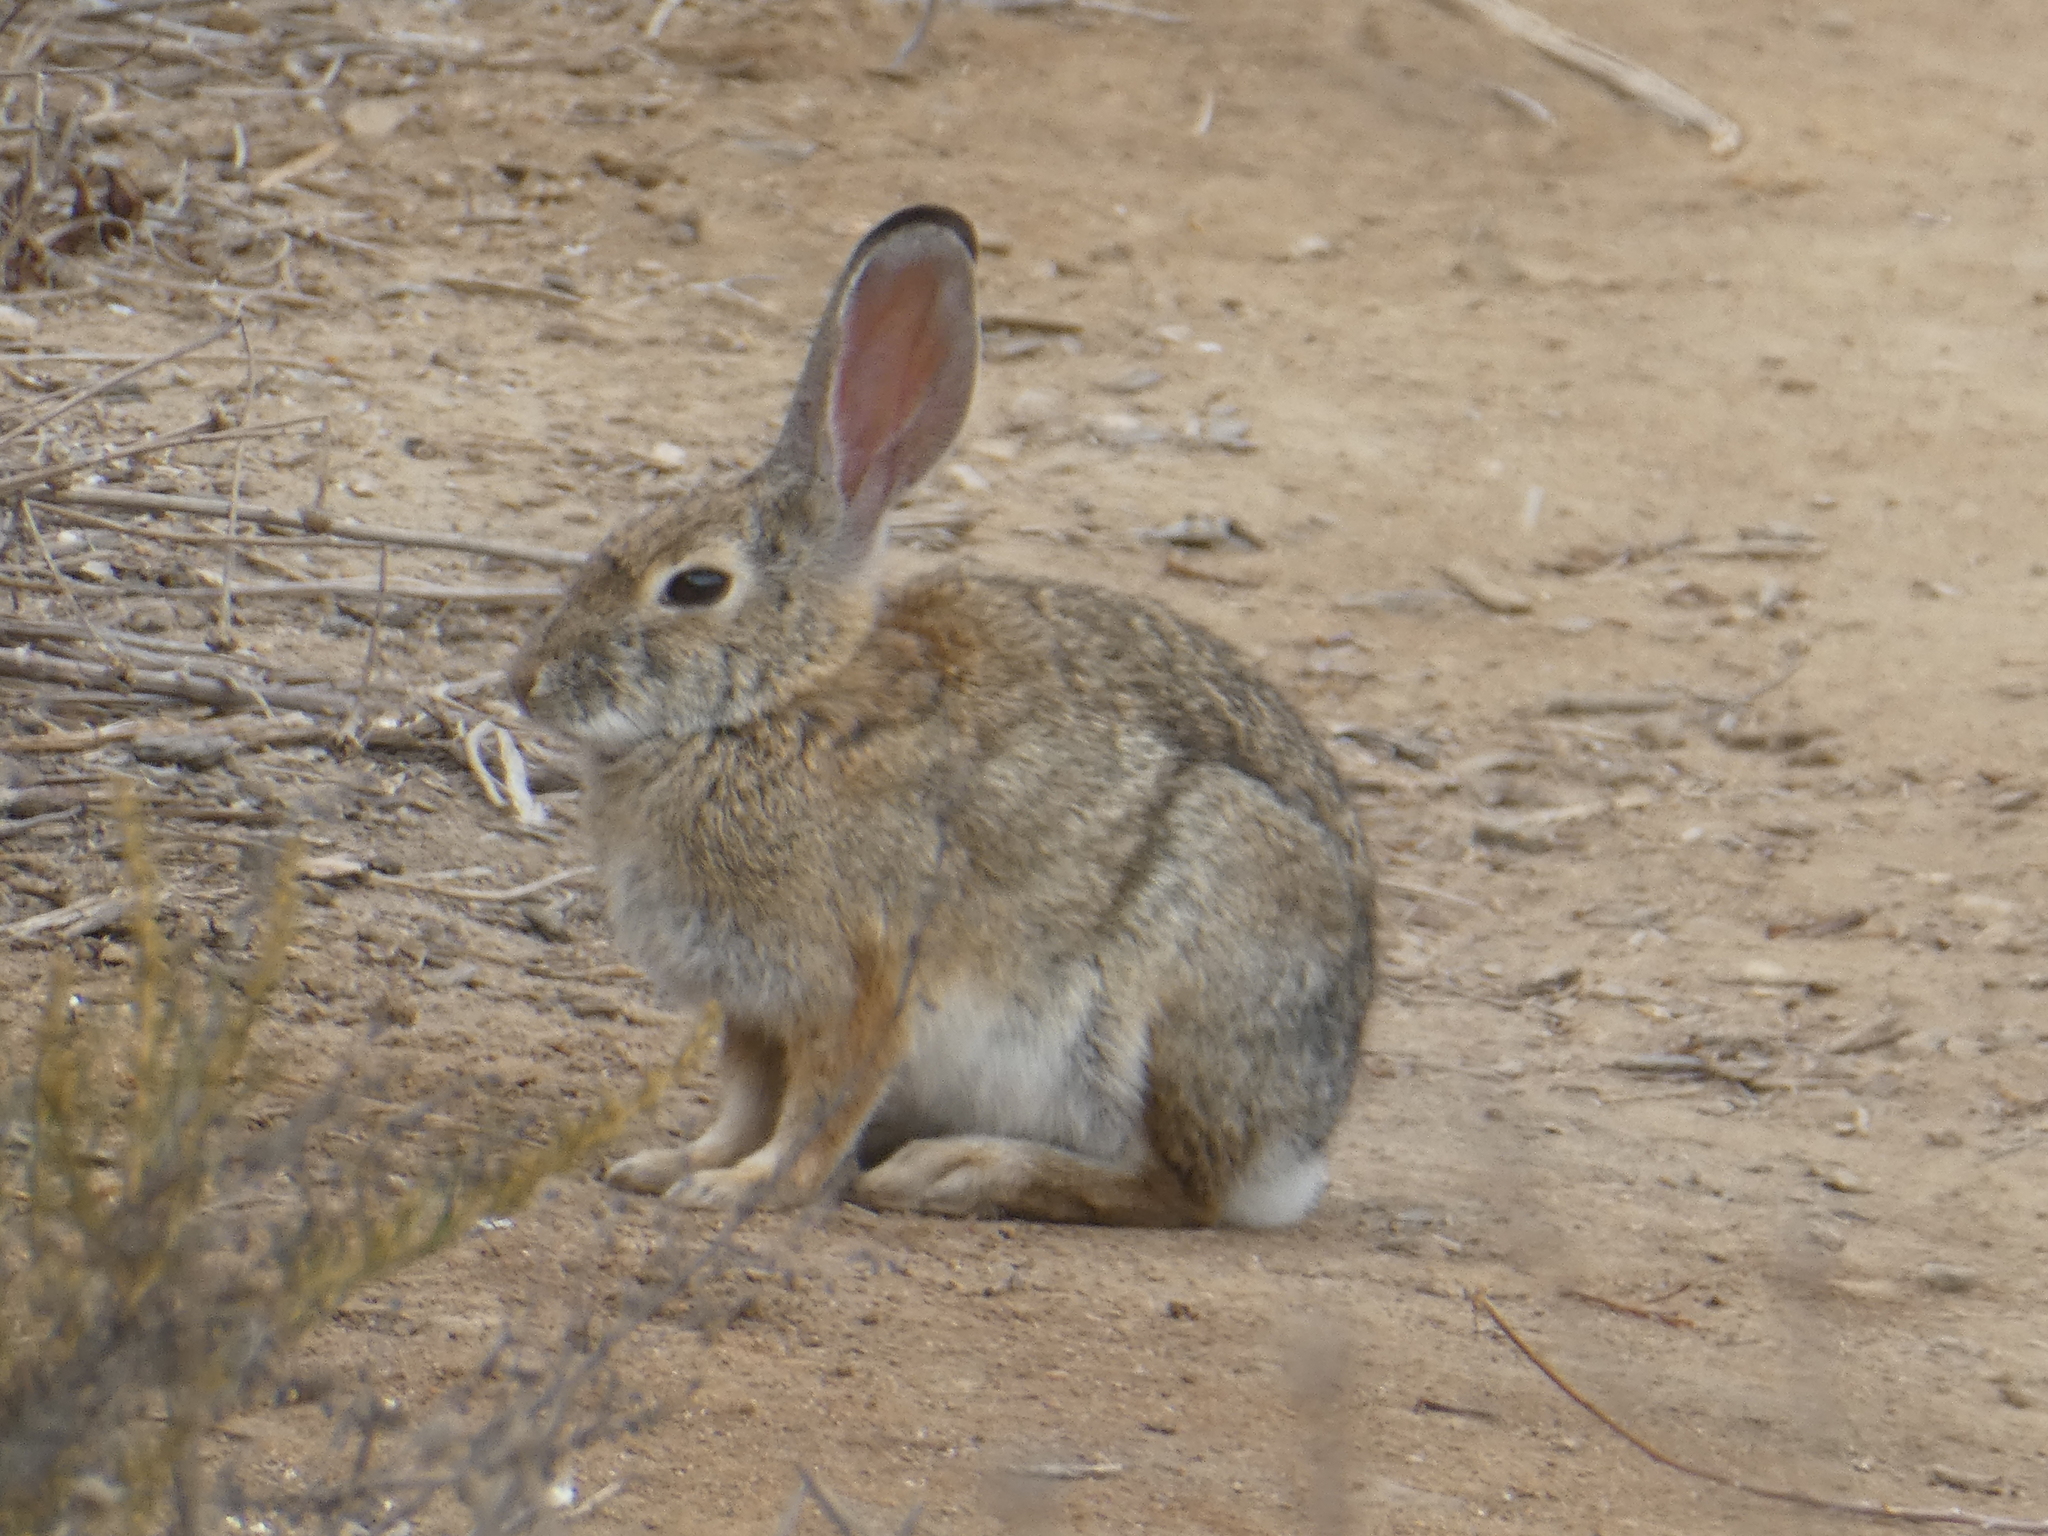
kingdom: Animalia
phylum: Chordata
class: Mammalia
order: Lagomorpha
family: Leporidae
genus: Sylvilagus
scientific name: Sylvilagus audubonii
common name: Desert cottontail
